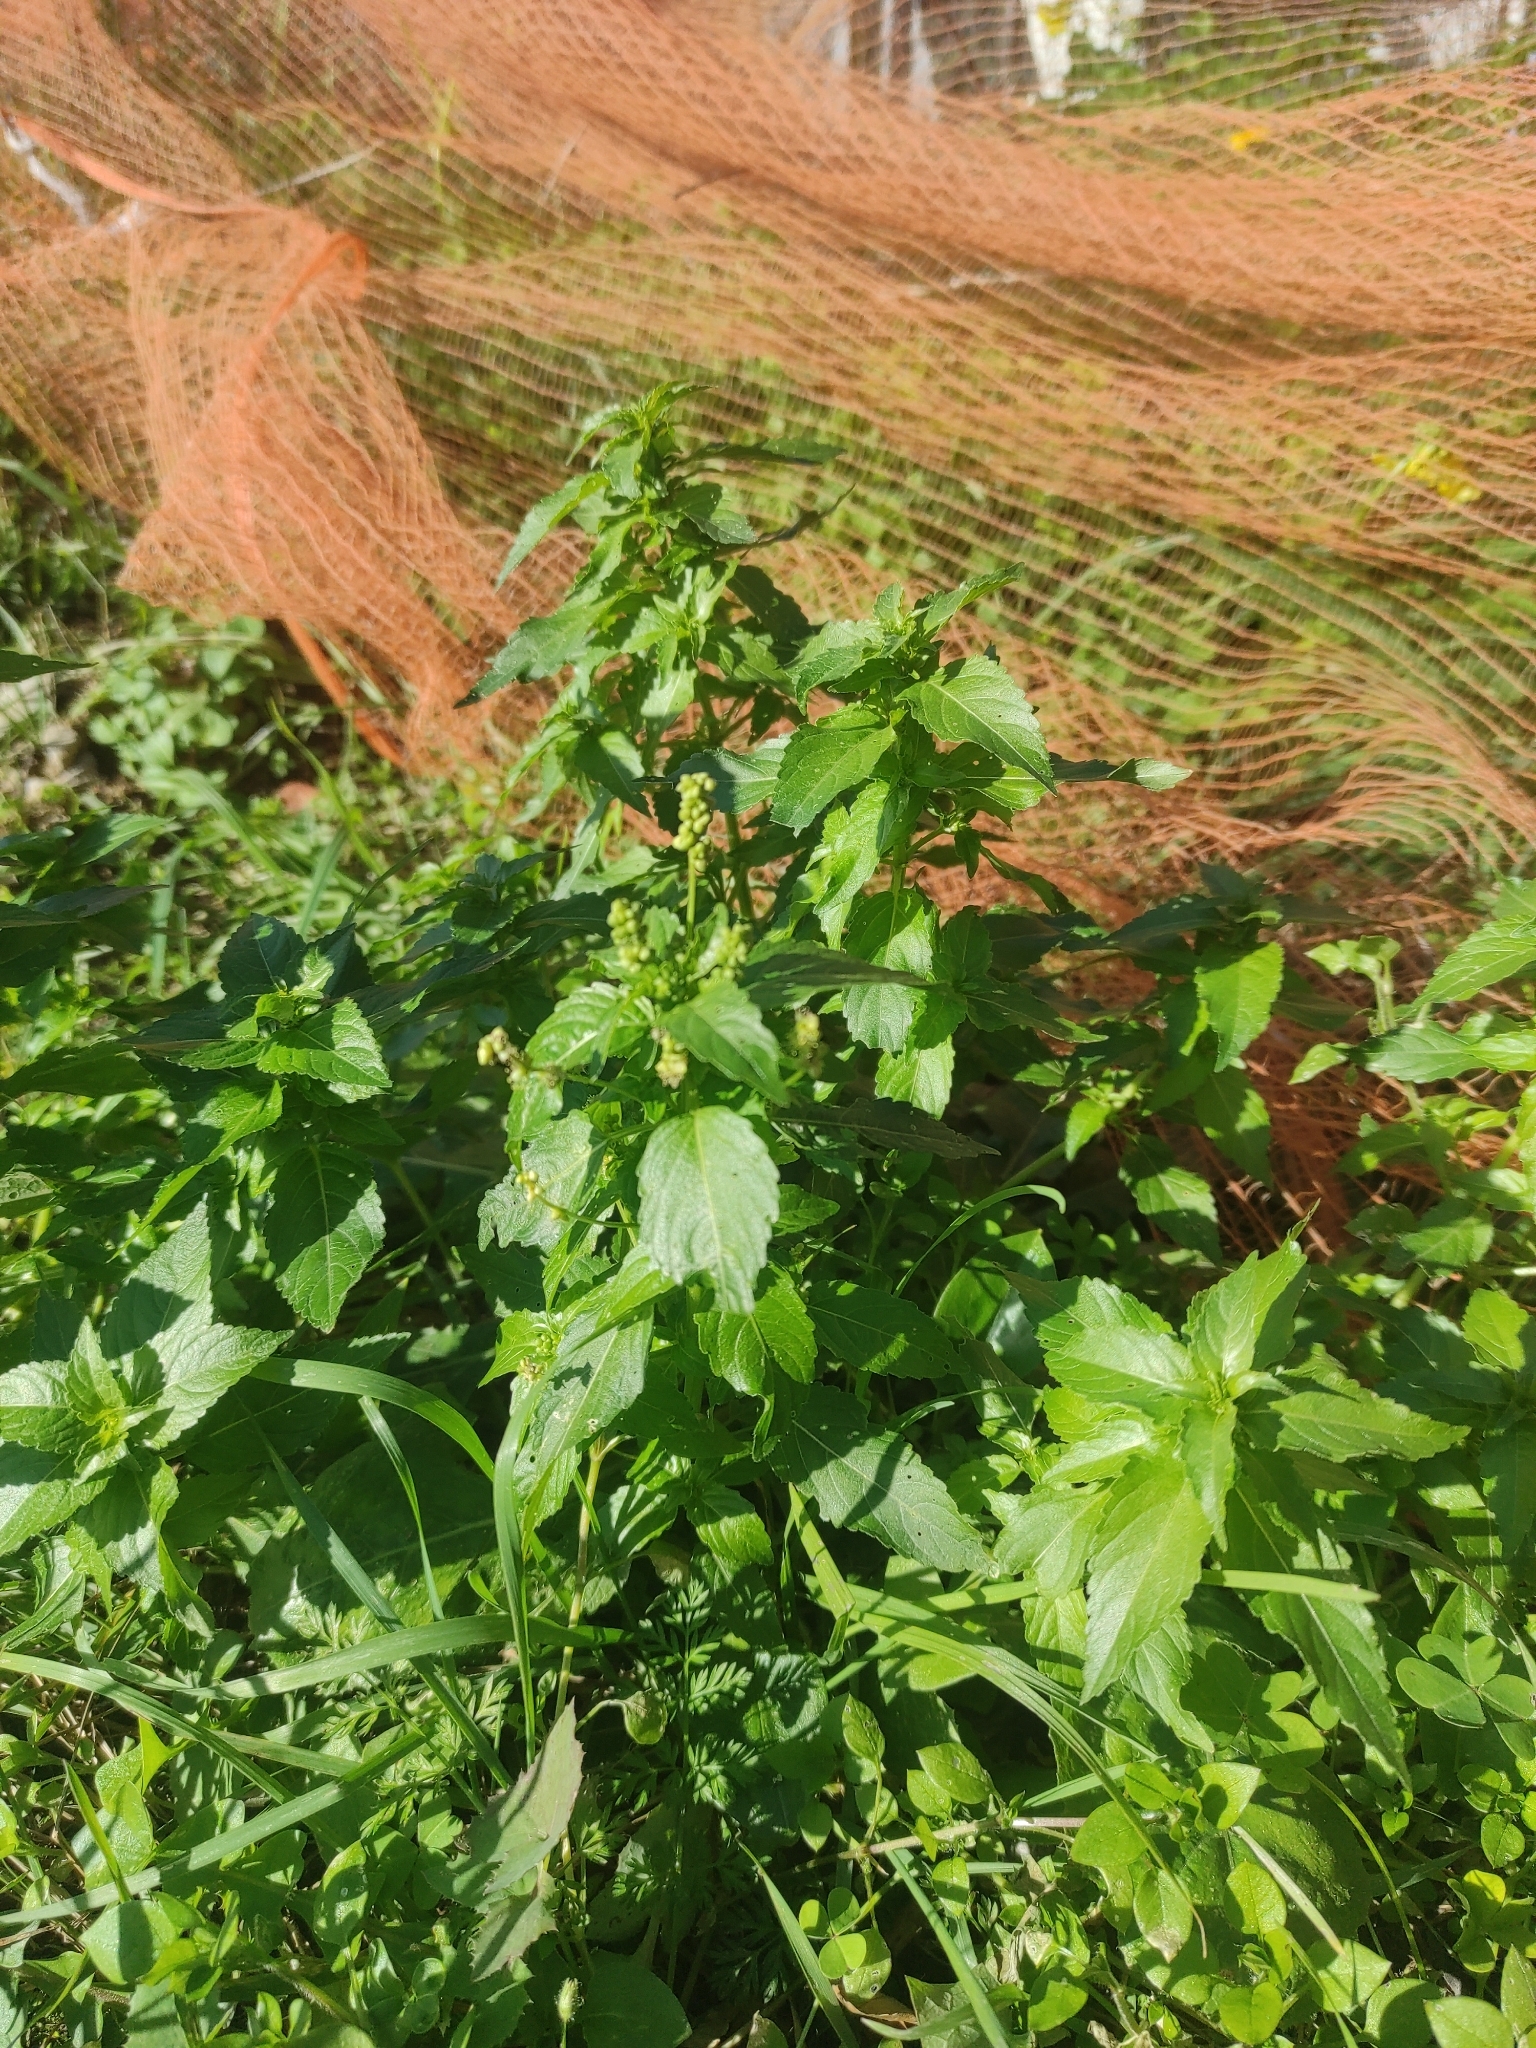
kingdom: Plantae
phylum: Tracheophyta
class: Magnoliopsida
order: Malpighiales
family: Euphorbiaceae
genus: Mercurialis
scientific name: Mercurialis annua
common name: Annual mercury
